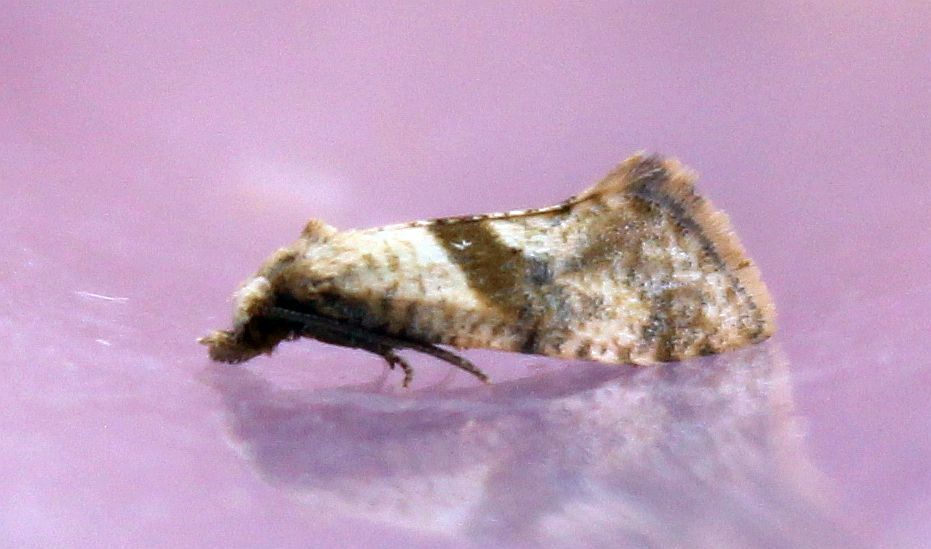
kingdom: Animalia
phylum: Arthropoda
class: Insecta
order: Lepidoptera
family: Tortricidae
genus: Cochylidia
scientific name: Cochylidia implicitana
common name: Chamomile conch
